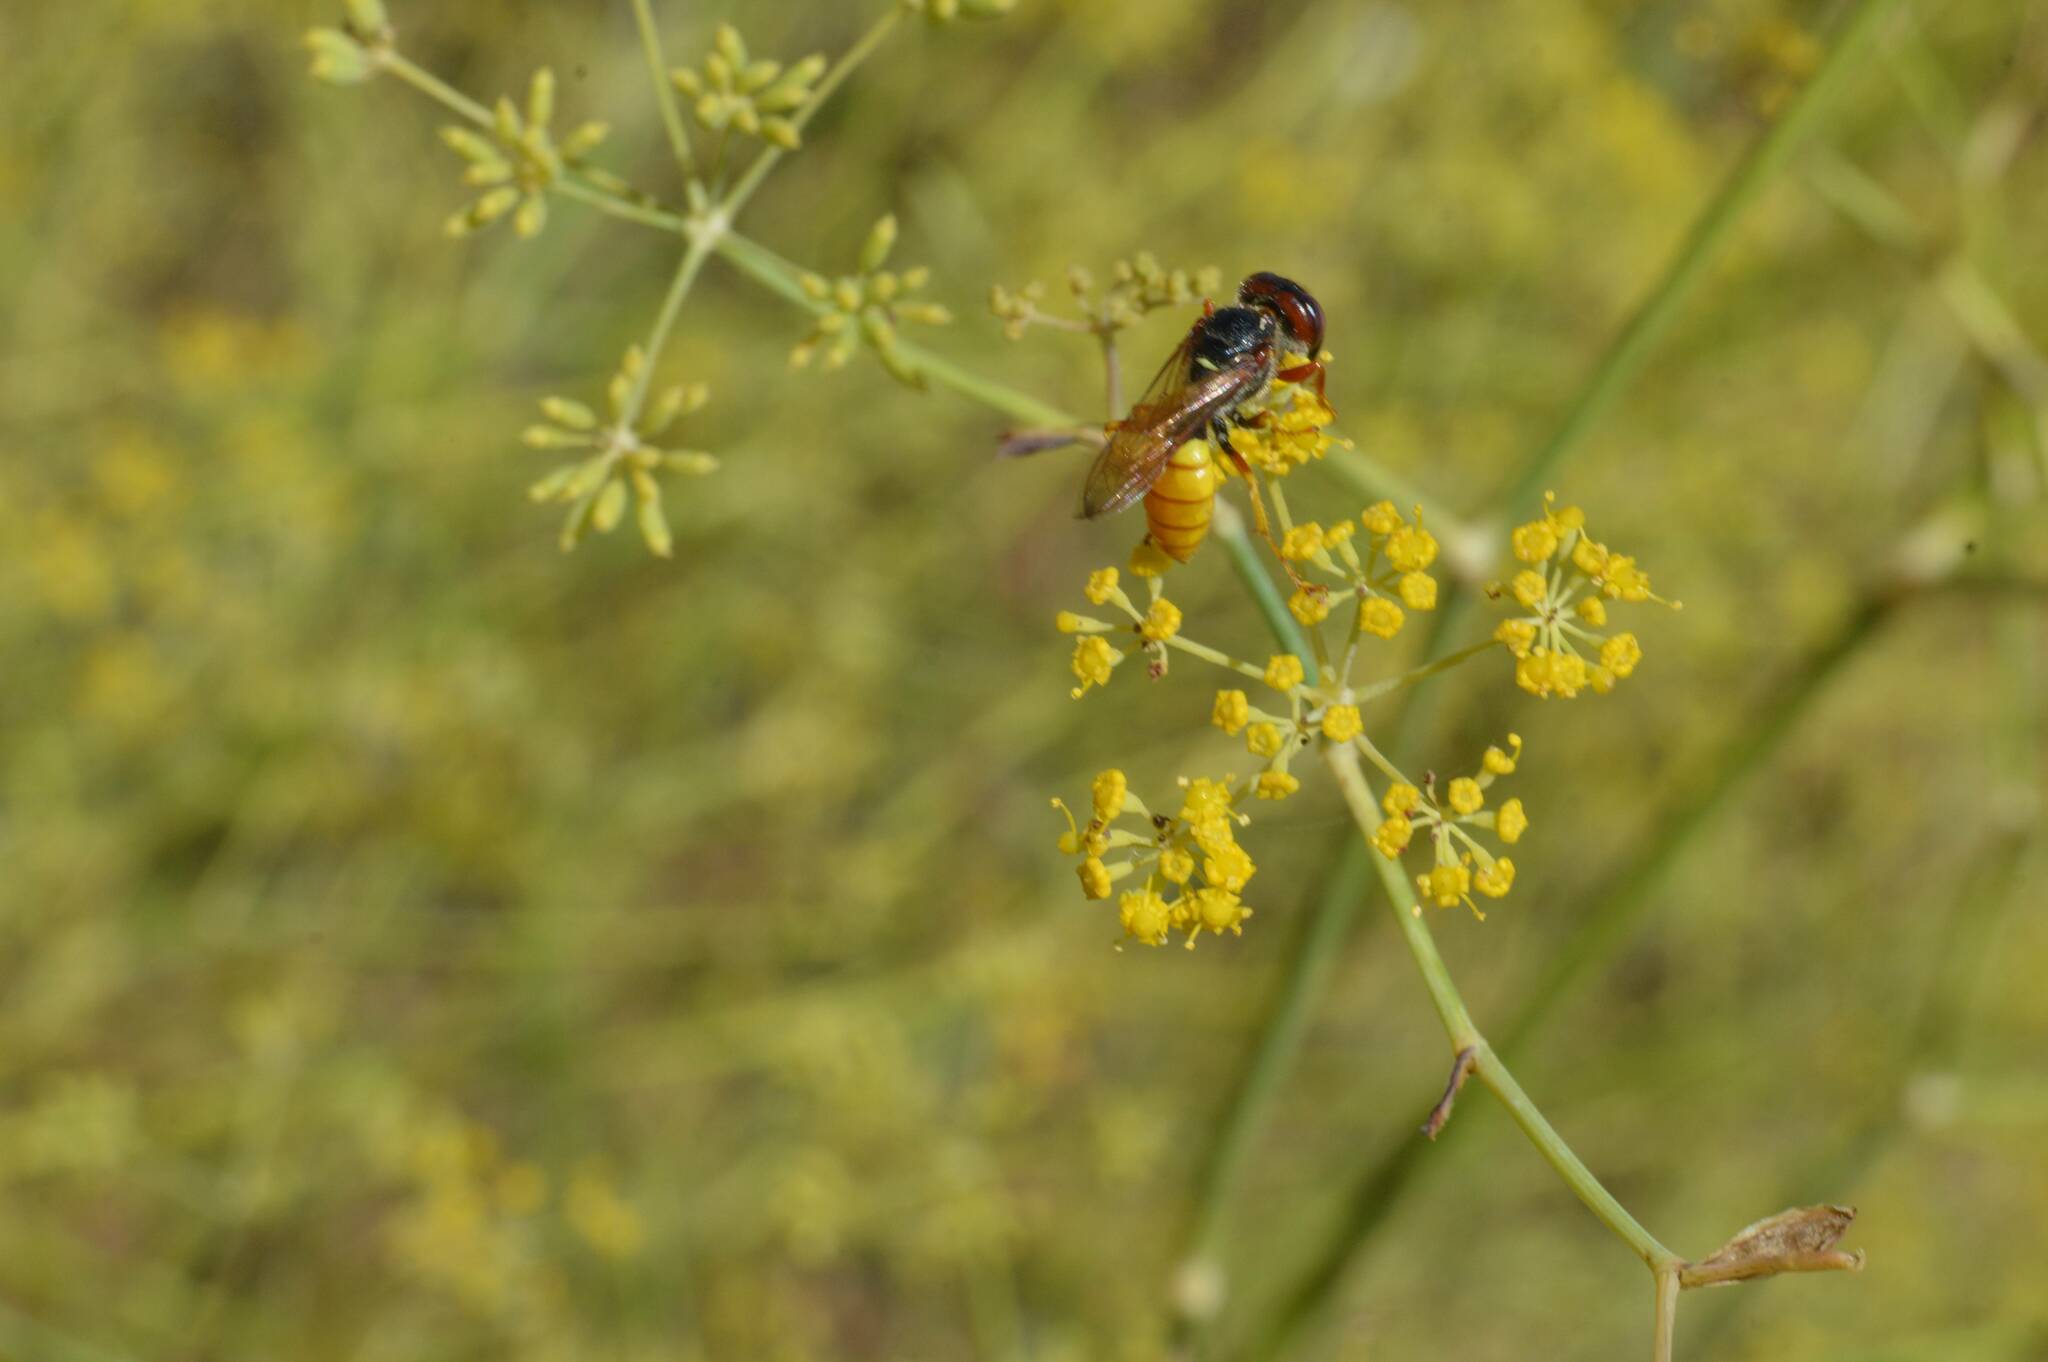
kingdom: Animalia
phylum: Arthropoda
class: Insecta
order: Hymenoptera
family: Crabronidae
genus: Philanthus
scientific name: Philanthus triangulum
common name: Bee wolf
